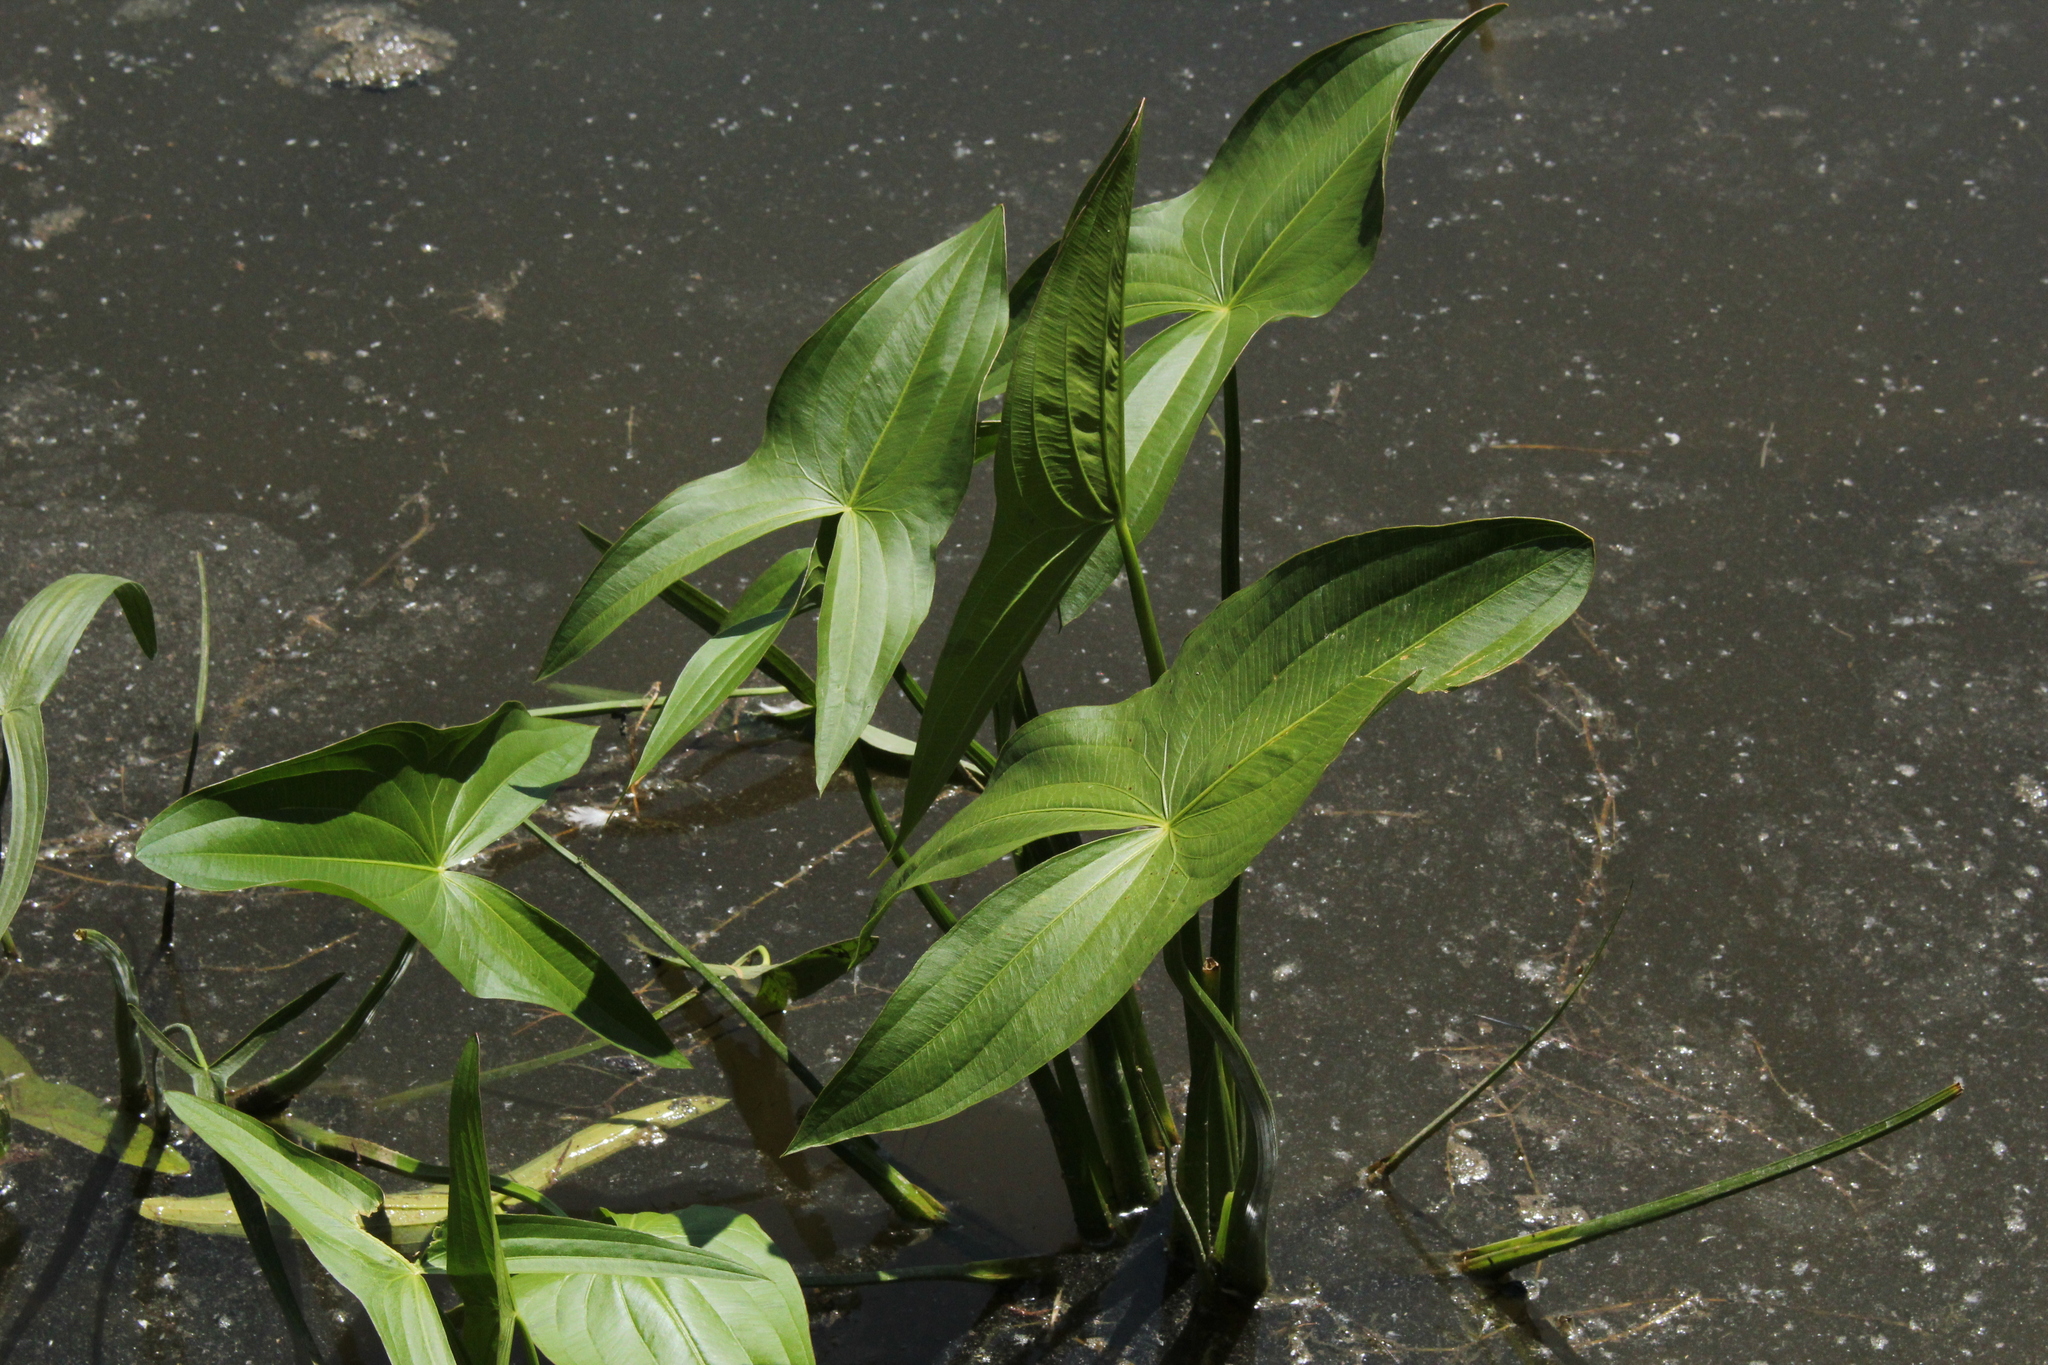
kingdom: Plantae
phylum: Tracheophyta
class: Liliopsida
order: Alismatales
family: Alismataceae
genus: Sagittaria
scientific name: Sagittaria latifolia
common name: Duck-potato
